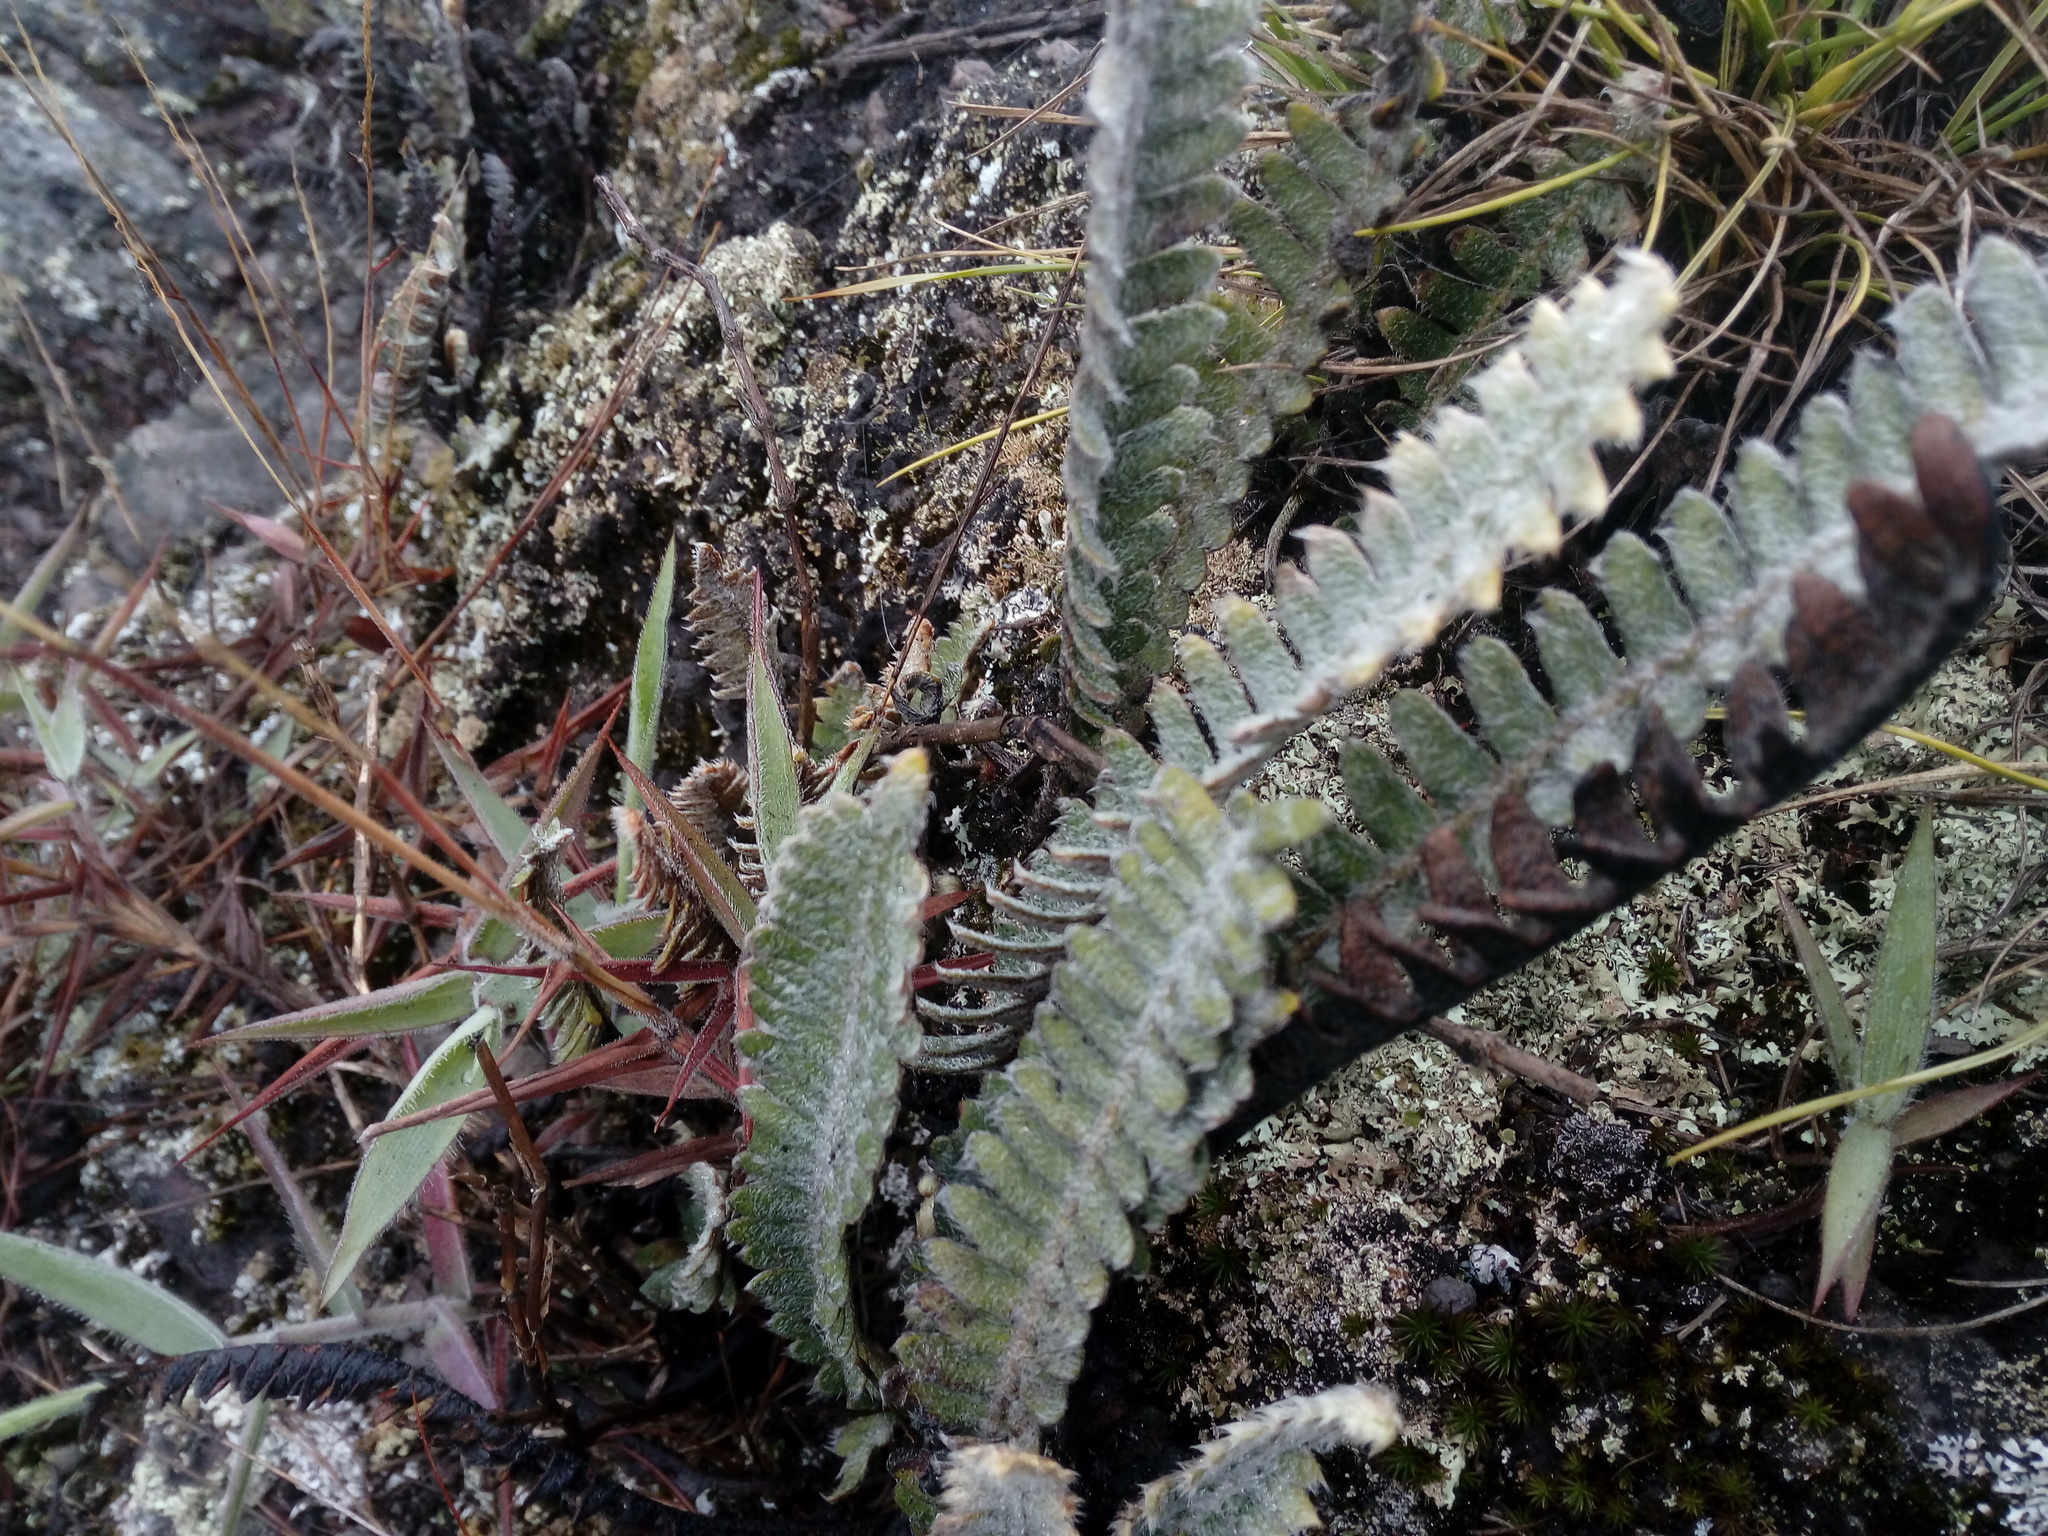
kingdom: Plantae
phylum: Tracheophyta
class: Polypodiopsida
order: Polypodiales
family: Polypodiaceae
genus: Pleopeltis
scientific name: Pleopeltis bombycina
